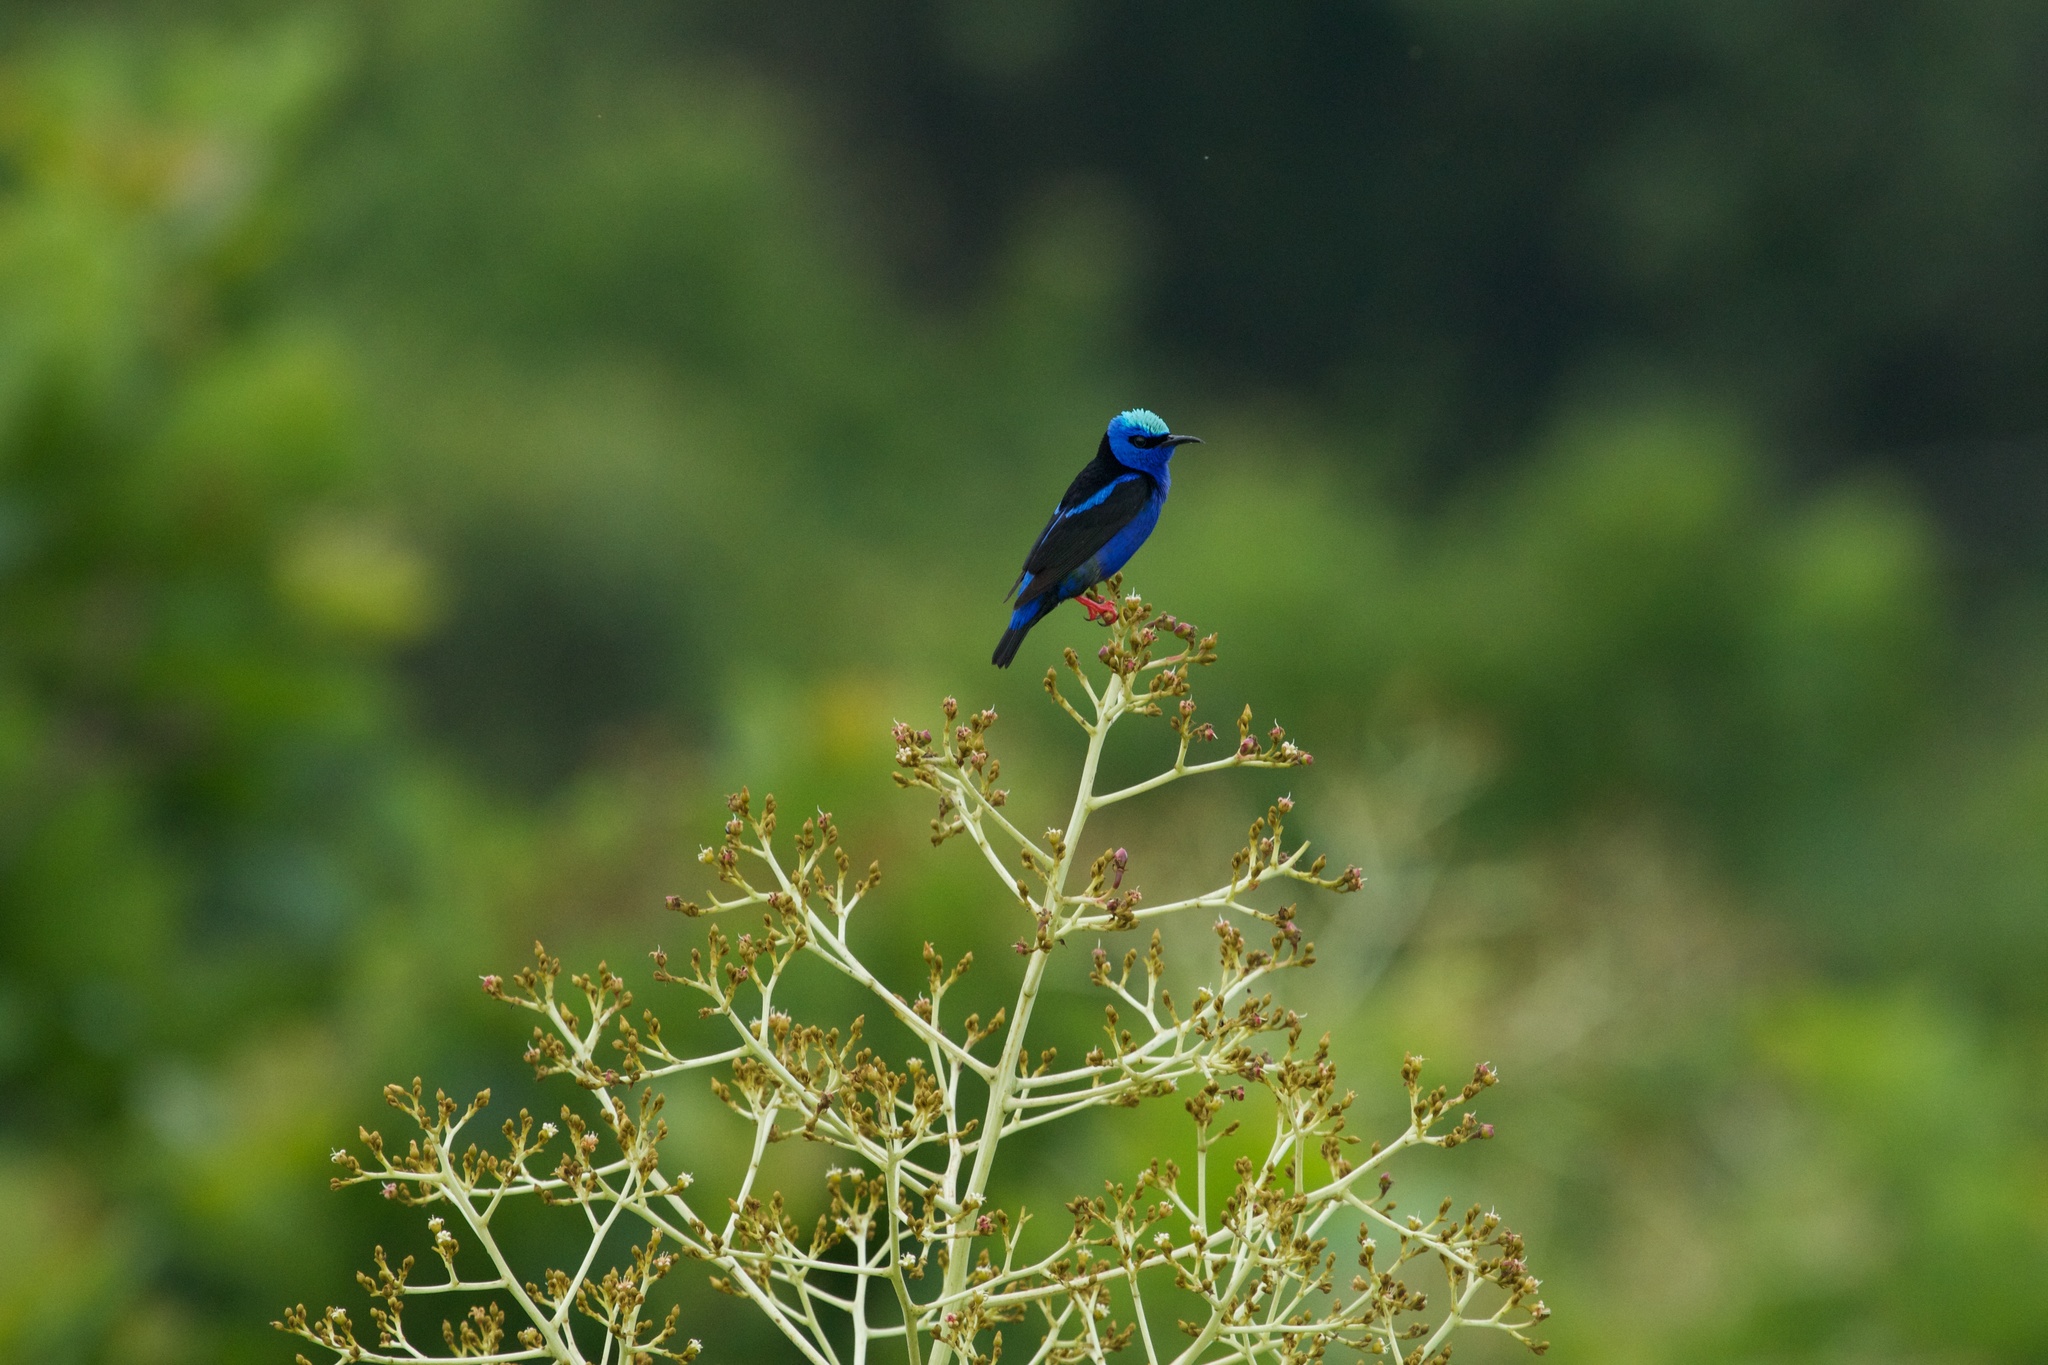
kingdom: Animalia
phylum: Chordata
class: Aves
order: Passeriformes
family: Thraupidae
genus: Cyanerpes
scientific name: Cyanerpes cyaneus
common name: Red-legged honeycreeper
